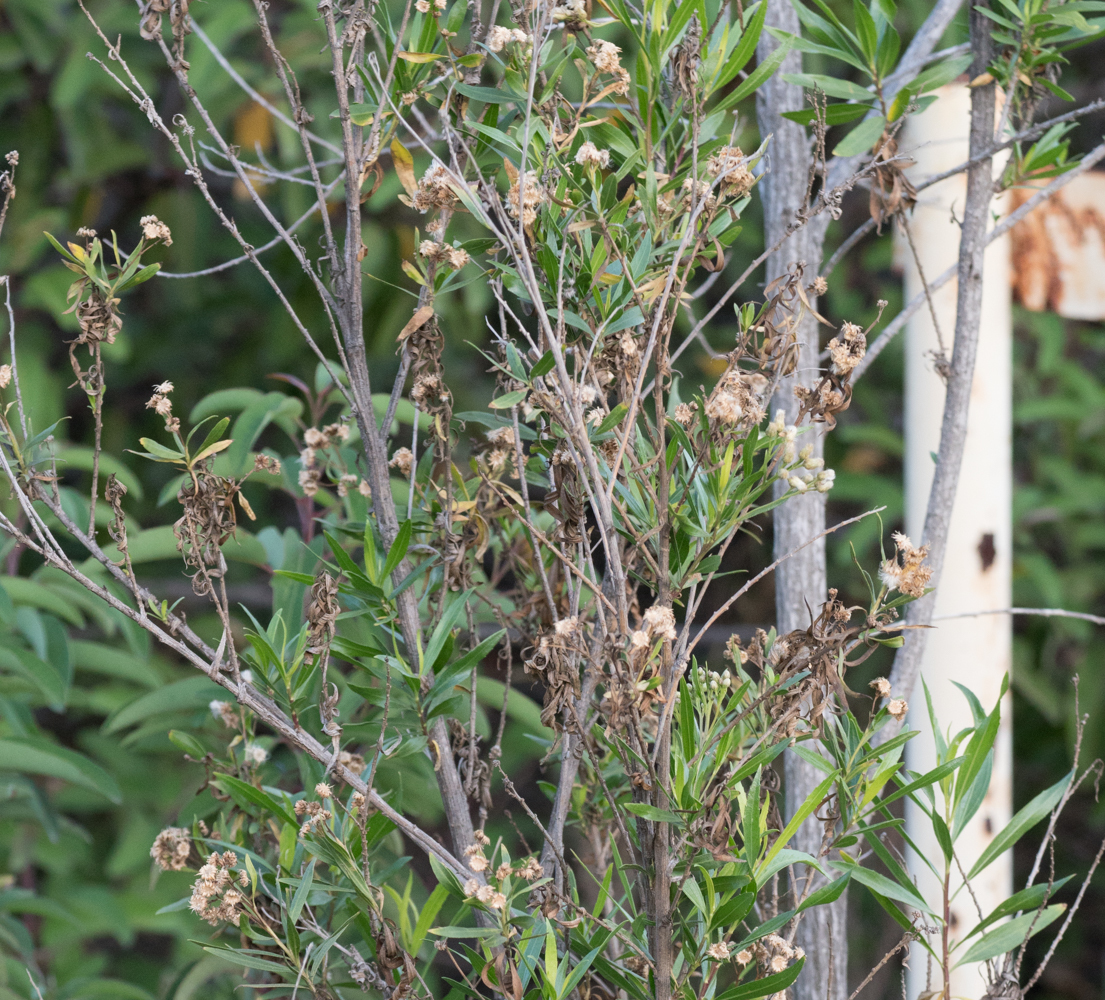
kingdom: Plantae
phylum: Tracheophyta
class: Magnoliopsida
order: Asterales
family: Asteraceae
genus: Baccharis
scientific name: Baccharis salicifolia
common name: Sticky baccharis
